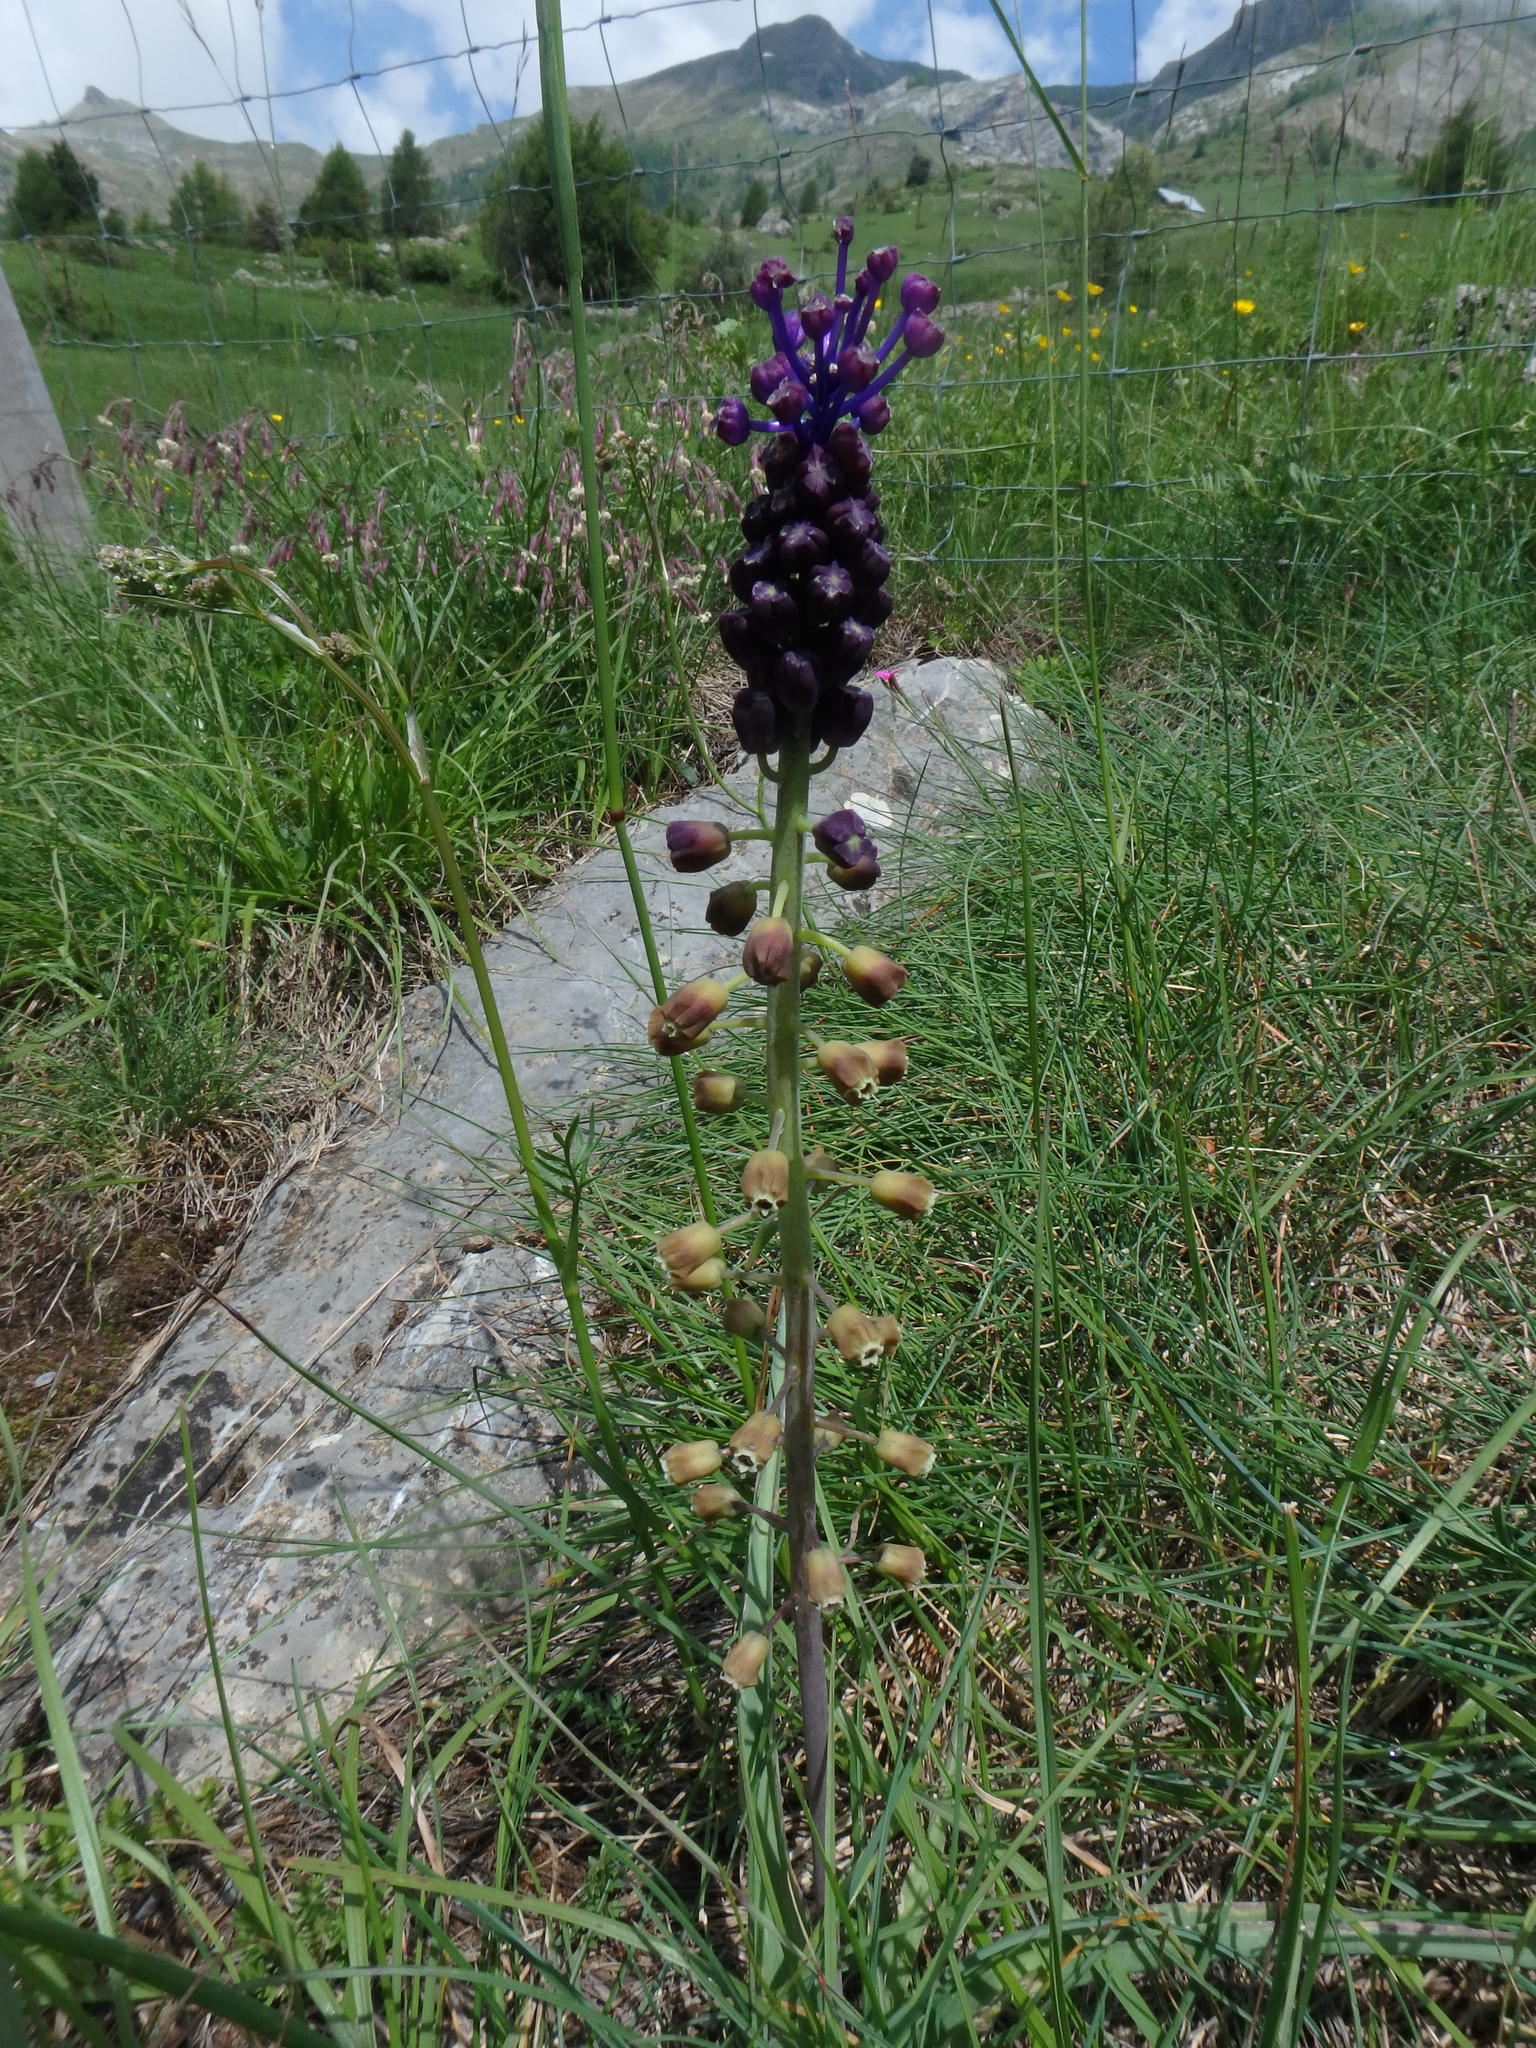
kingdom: Plantae
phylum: Tracheophyta
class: Liliopsida
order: Asparagales
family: Asparagaceae
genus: Muscari
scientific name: Muscari comosum
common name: Tassel hyacinth
